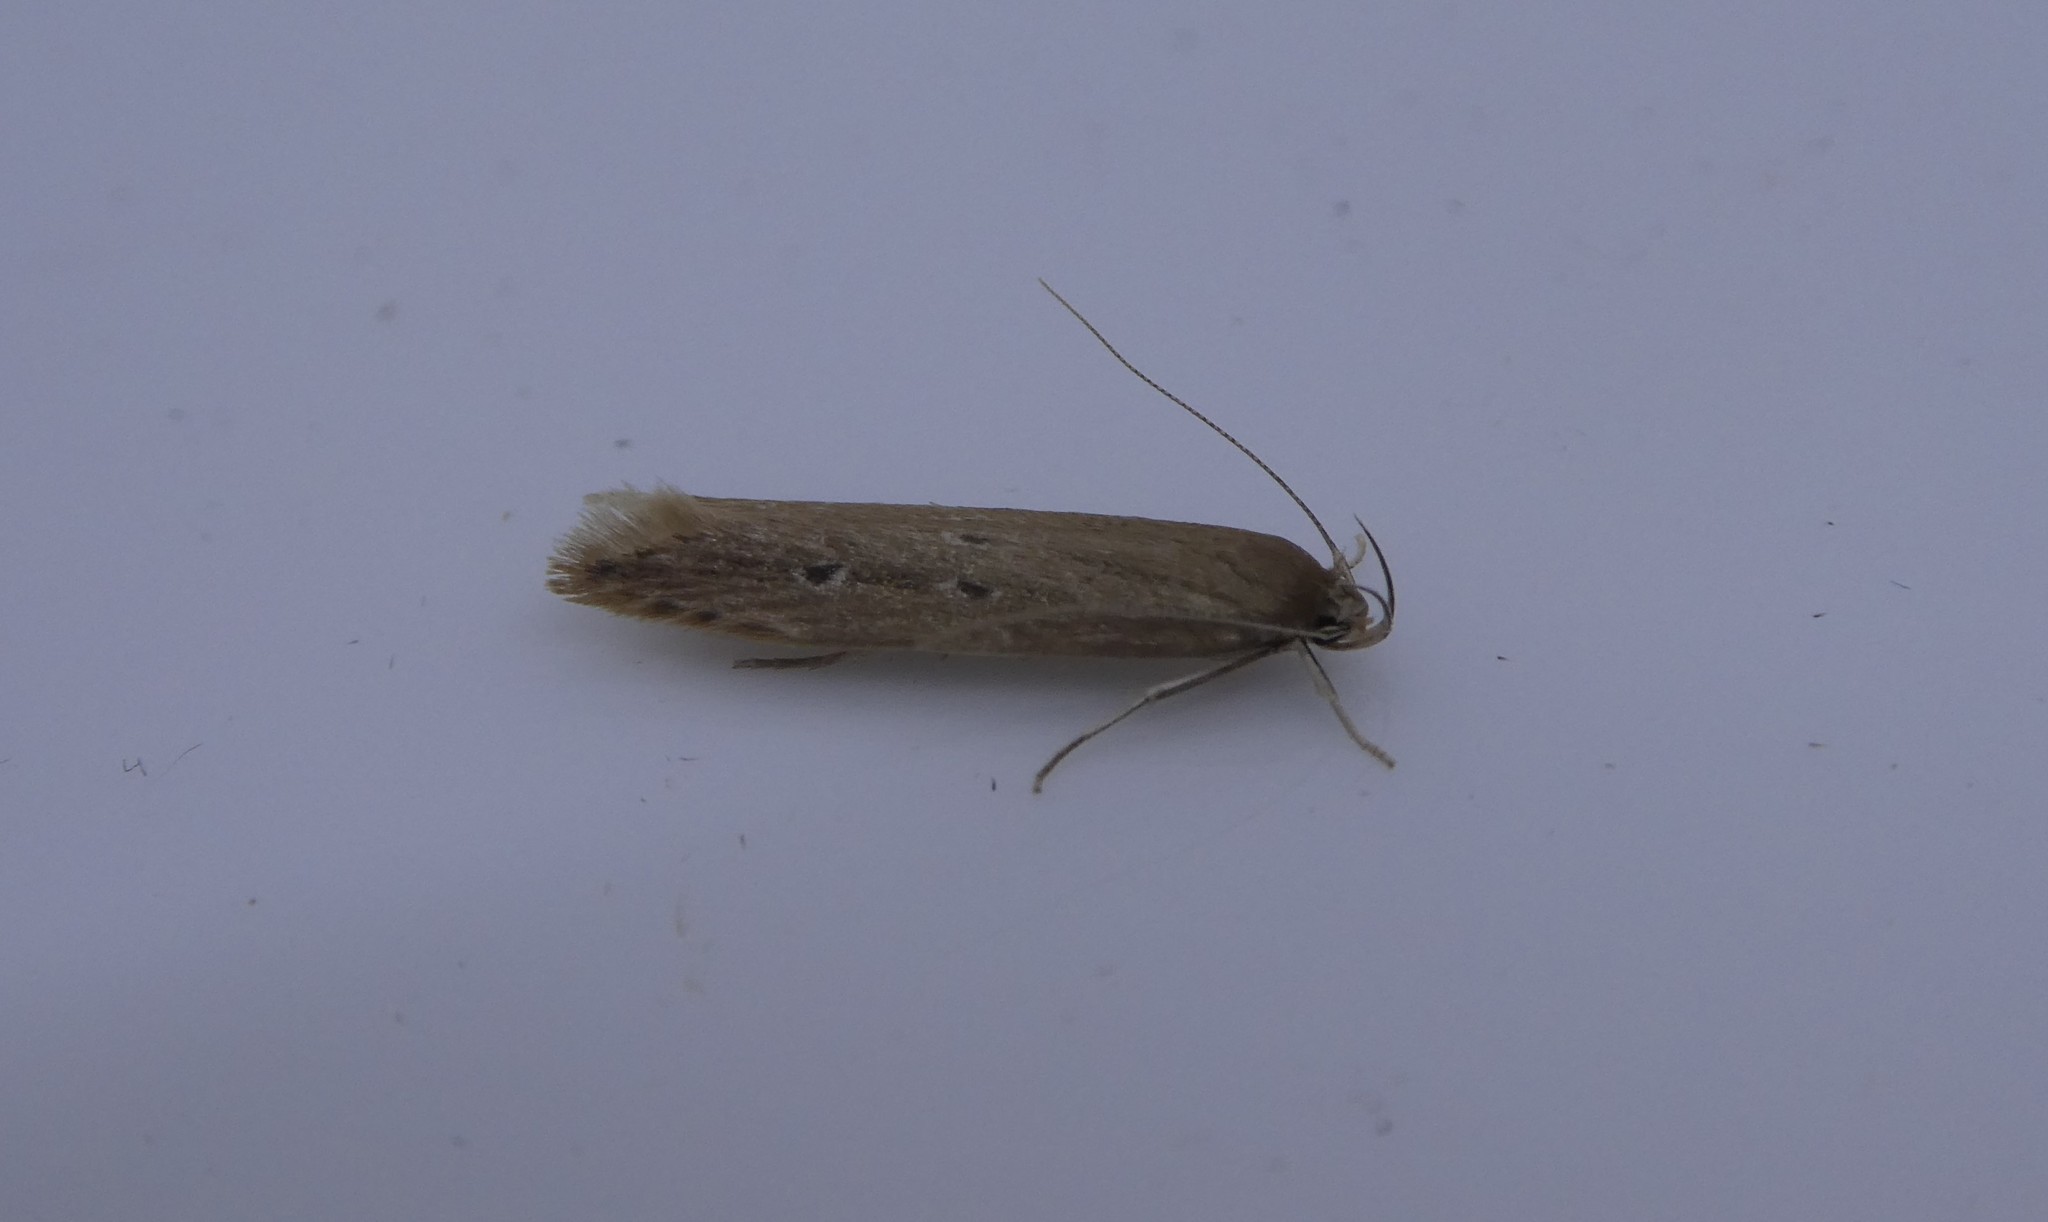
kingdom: Animalia
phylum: Arthropoda
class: Insecta
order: Lepidoptera
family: Cosmopterigidae
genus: Limnaecia
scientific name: Limnaecia phragmitella
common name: Bulrush cosmet
